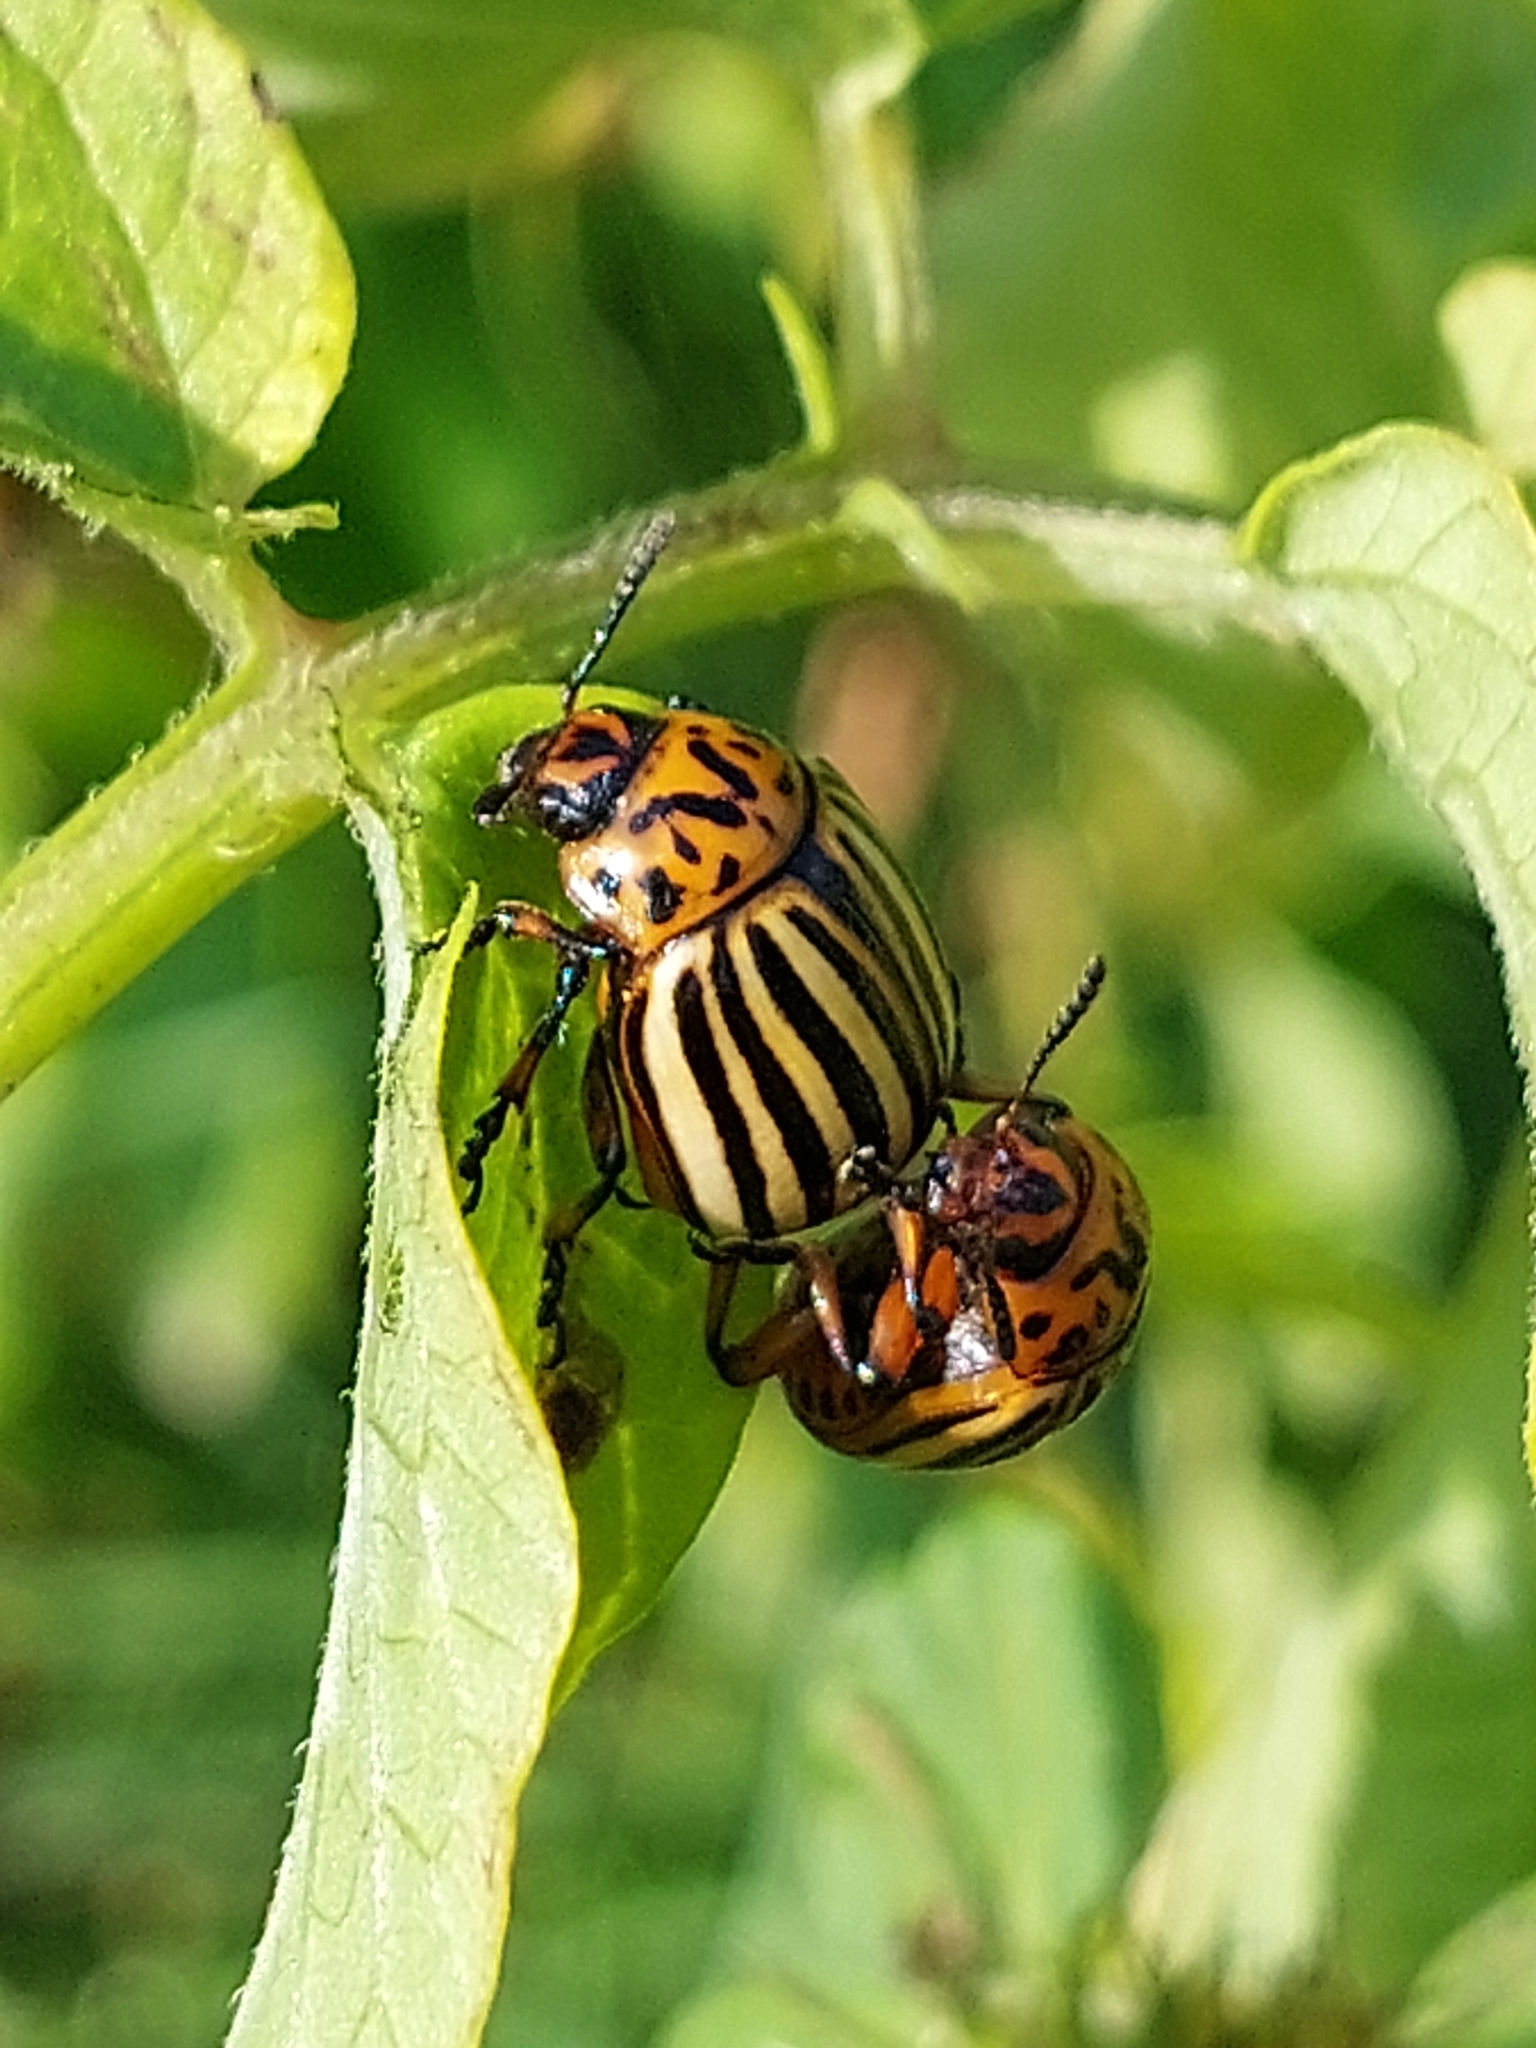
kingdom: Animalia
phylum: Arthropoda
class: Insecta
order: Coleoptera
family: Chrysomelidae
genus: Leptinotarsa
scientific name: Leptinotarsa decemlineata
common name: Colorado potato beetle
